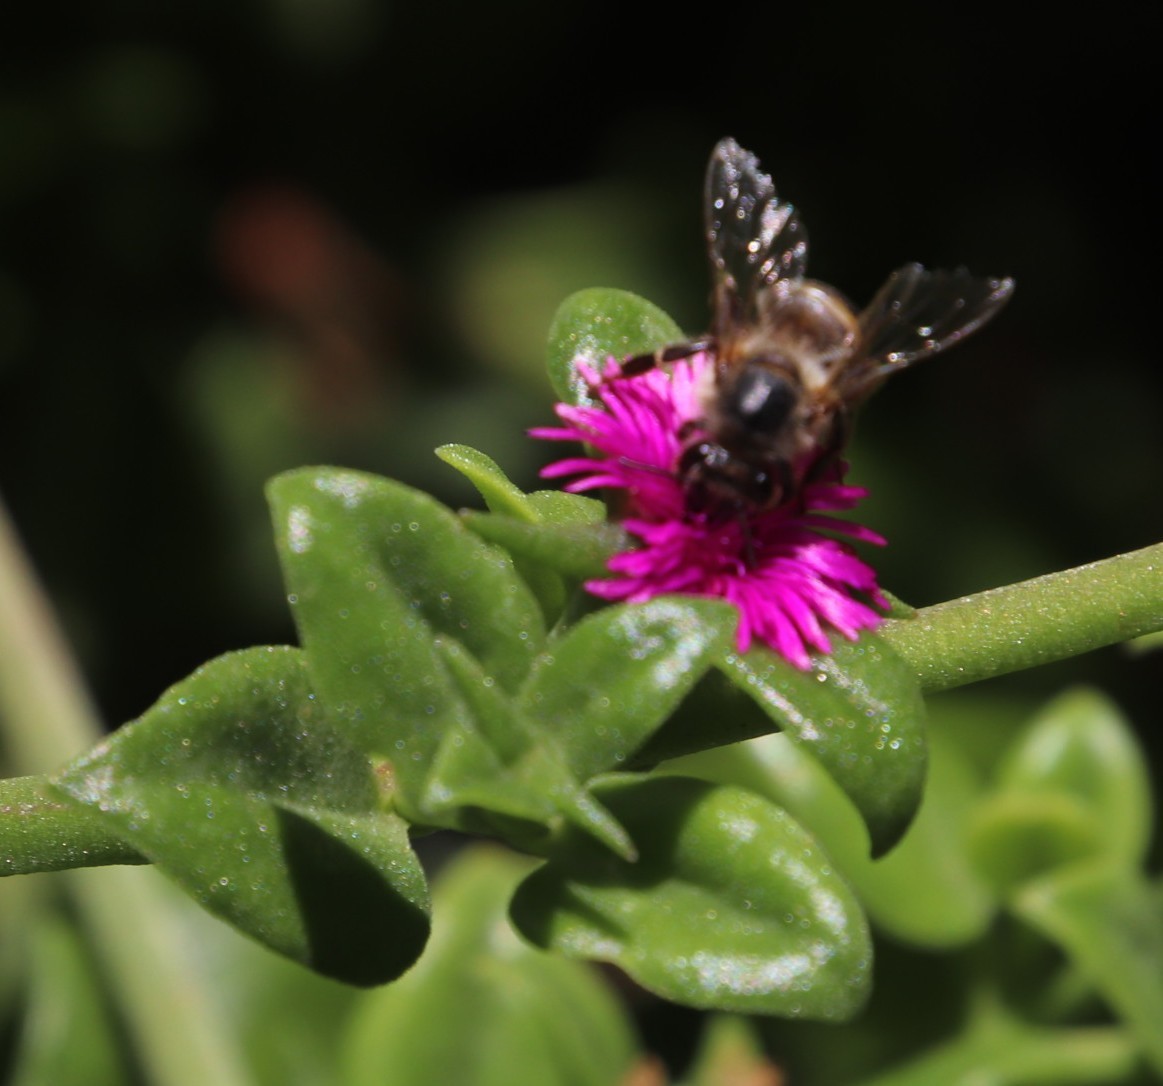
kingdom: Plantae
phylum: Tracheophyta
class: Magnoliopsida
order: Caryophyllales
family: Aizoaceae
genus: Mesembryanthemum
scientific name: Mesembryanthemum cordifolium
